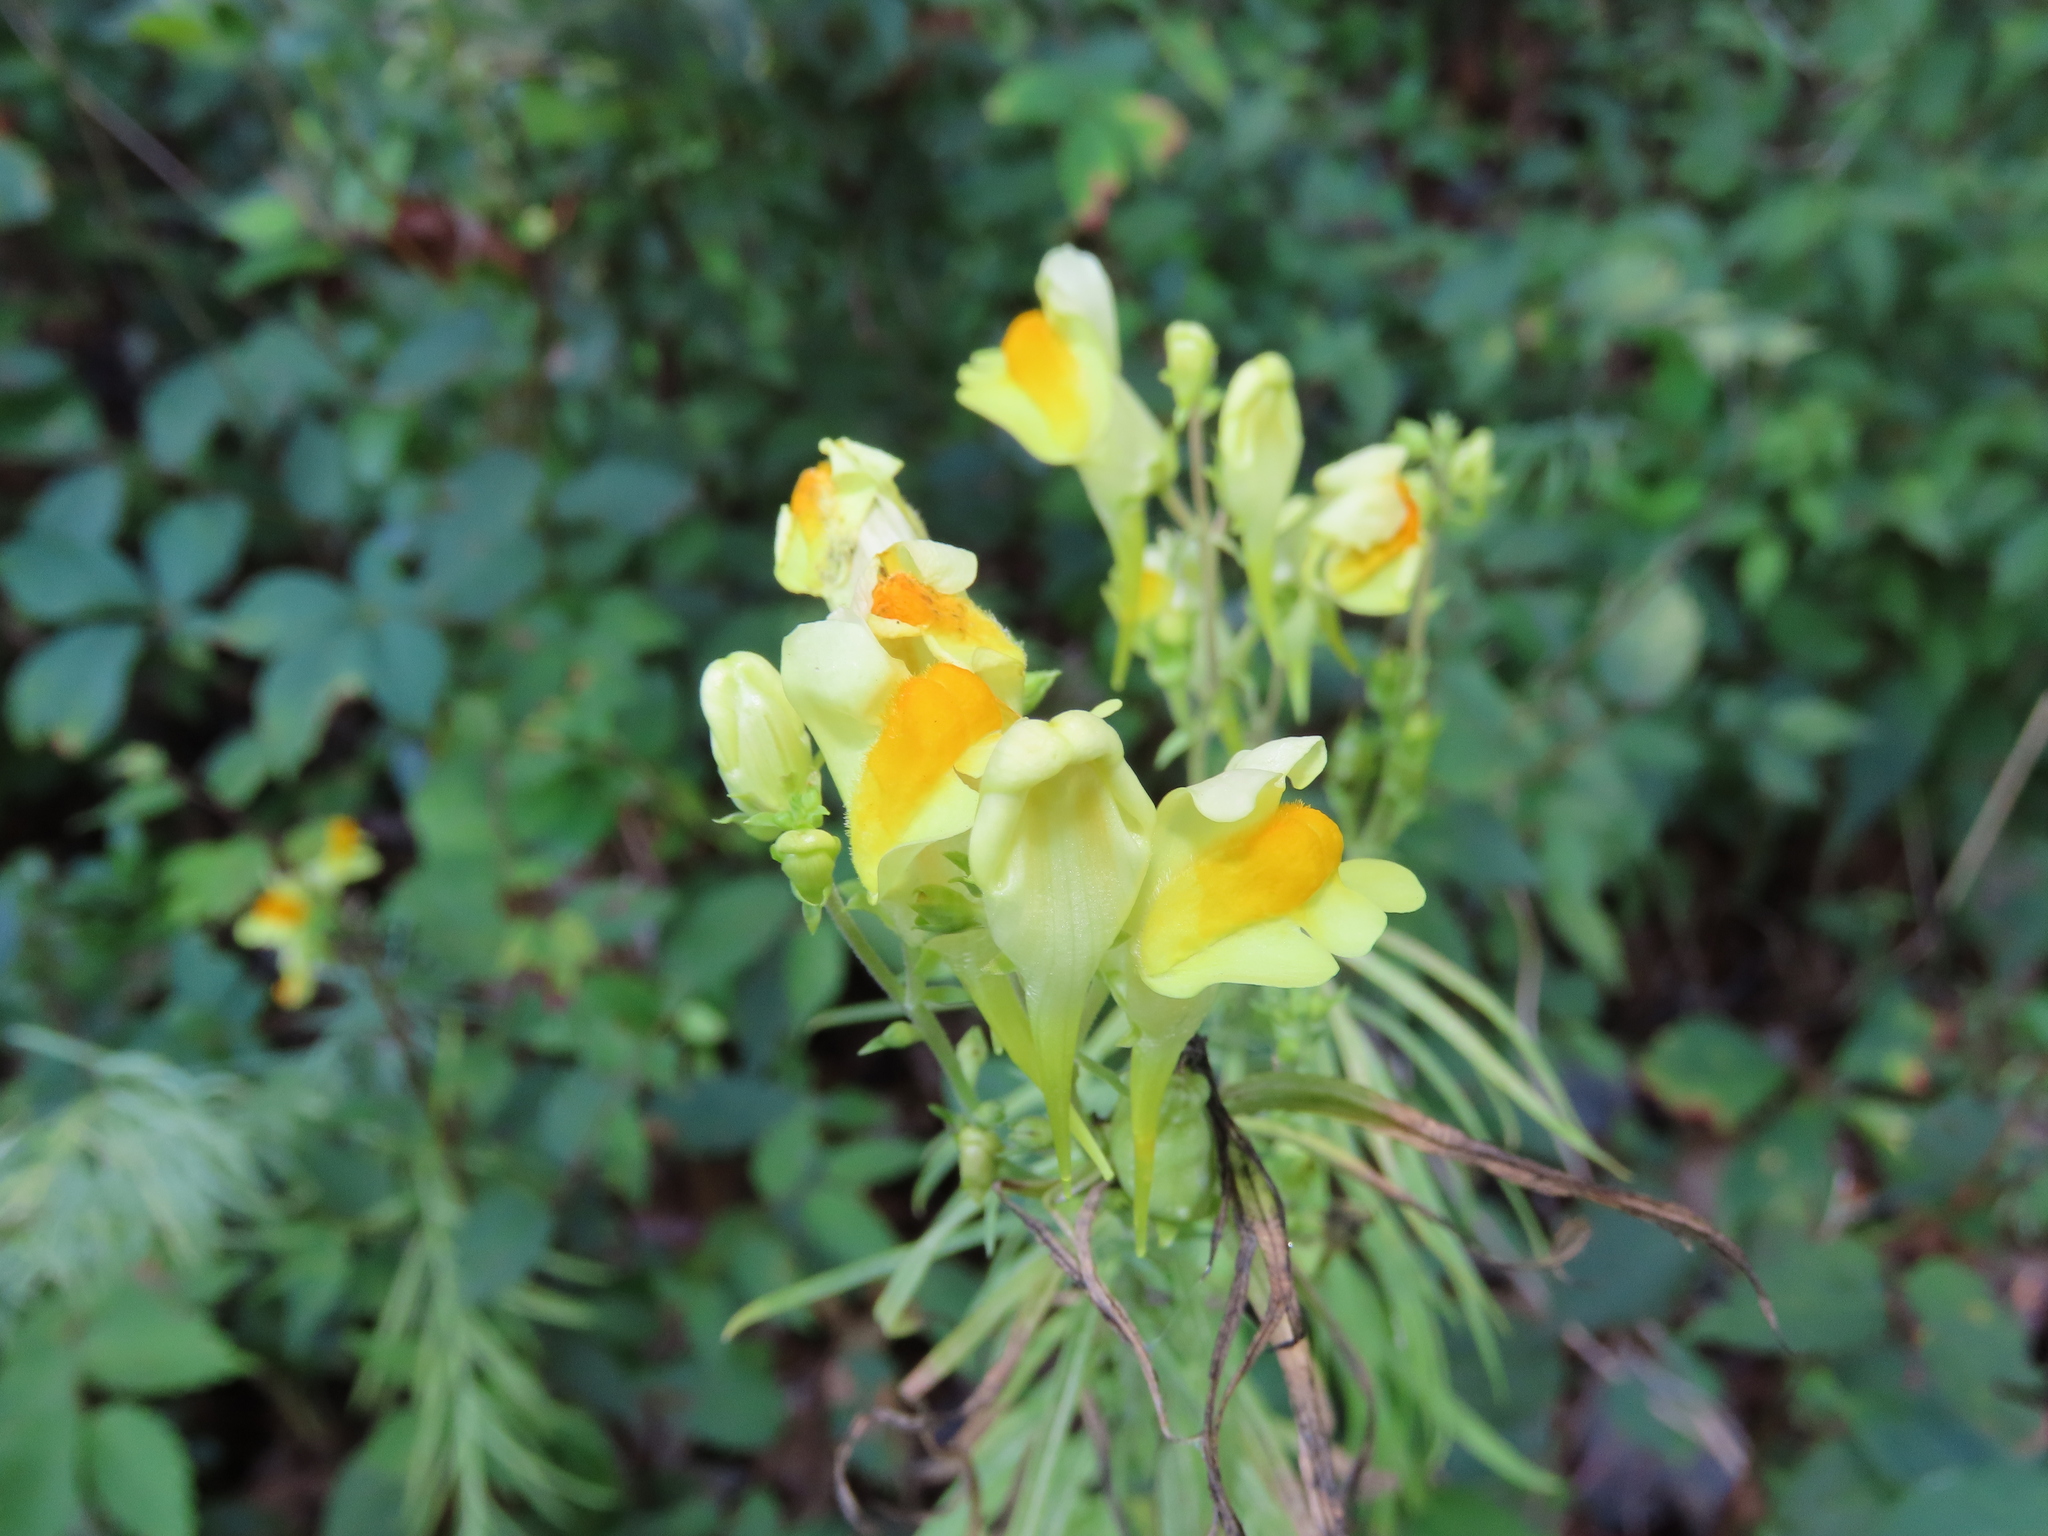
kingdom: Plantae
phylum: Tracheophyta
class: Magnoliopsida
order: Lamiales
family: Plantaginaceae
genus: Linaria
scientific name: Linaria vulgaris
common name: Butter and eggs
